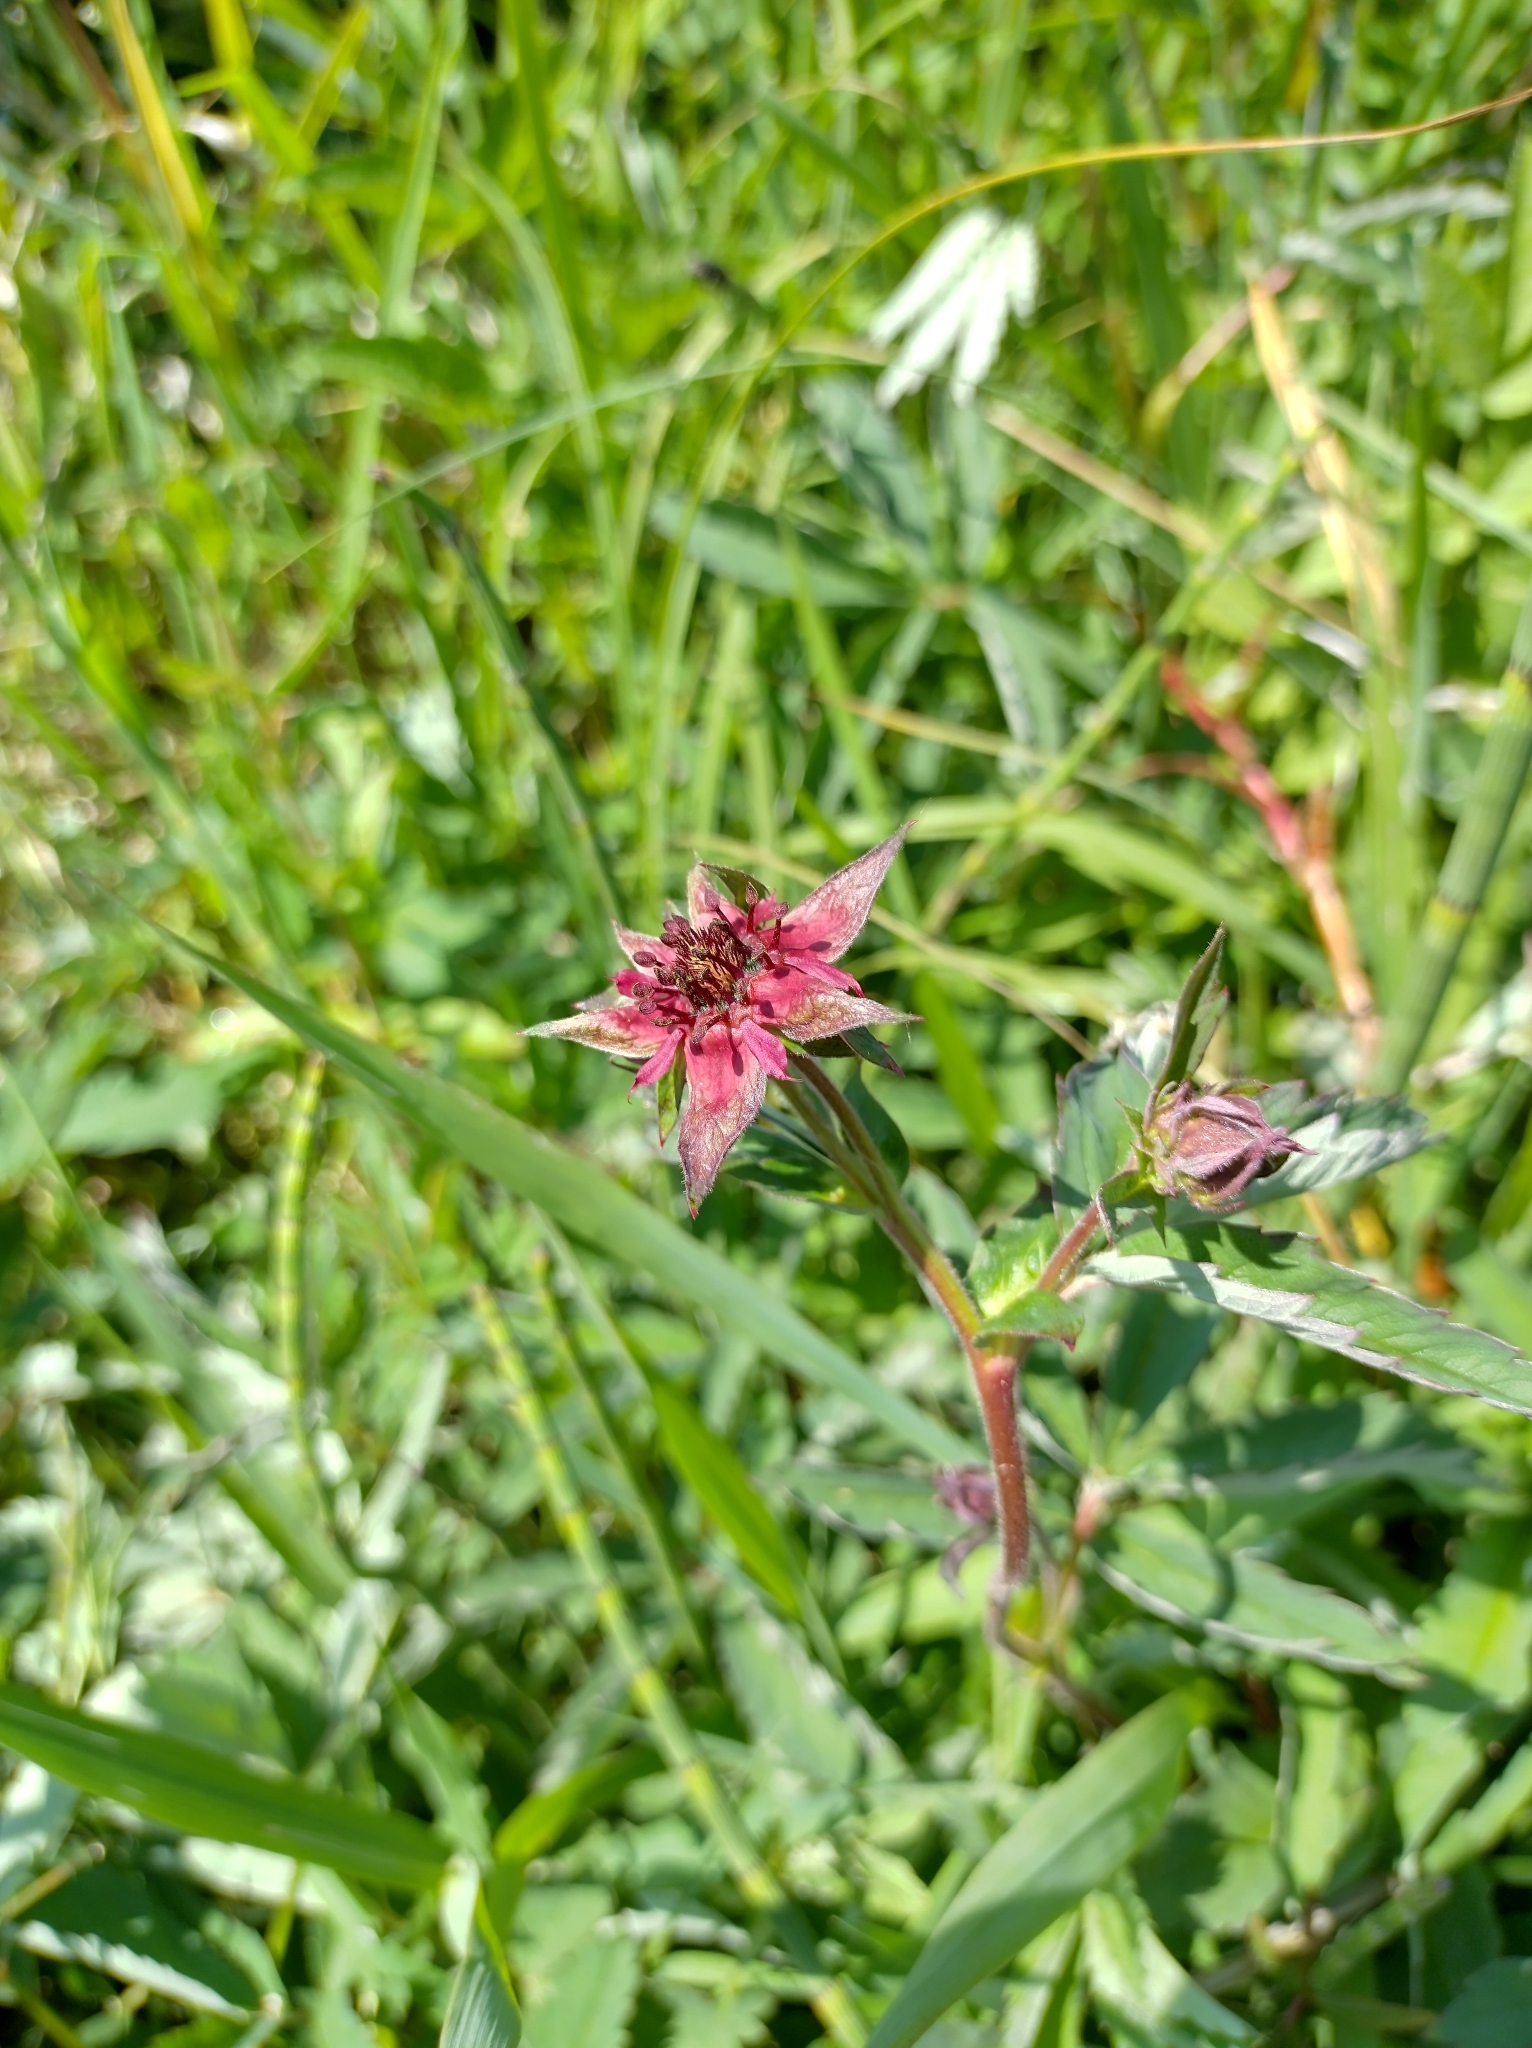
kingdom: Plantae
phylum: Tracheophyta
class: Magnoliopsida
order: Rosales
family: Rosaceae
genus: Comarum
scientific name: Comarum palustre
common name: Marsh cinquefoil
